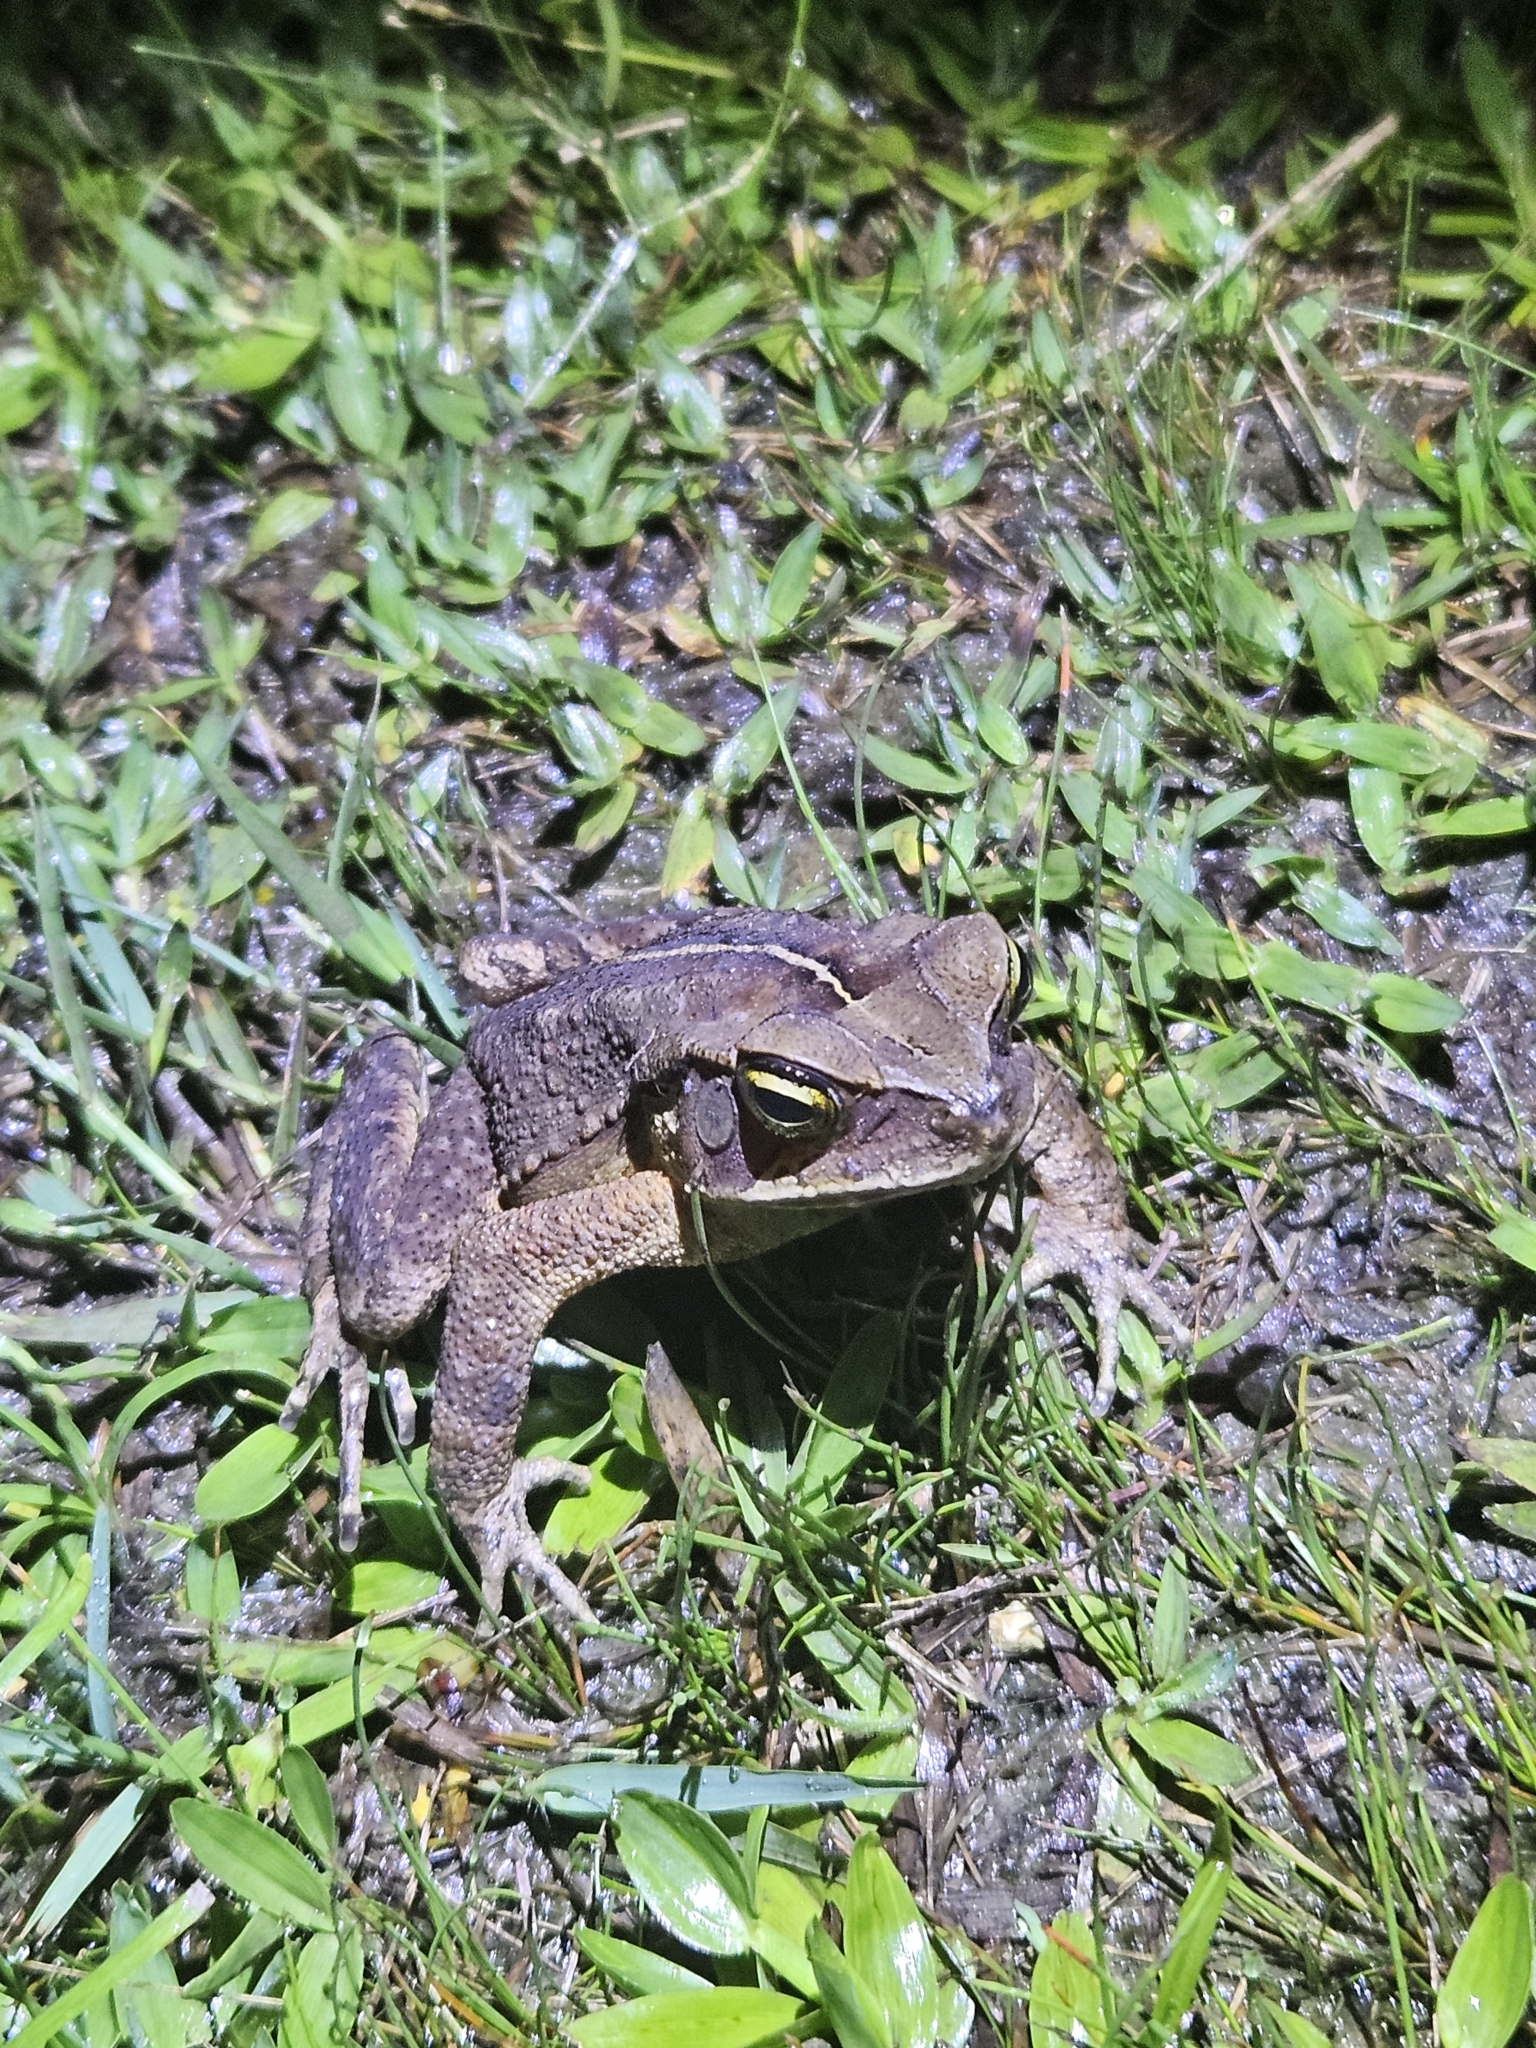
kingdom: Animalia
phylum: Chordata
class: Amphibia
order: Anura
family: Bufonidae
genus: Rhinella
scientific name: Rhinella ornata
